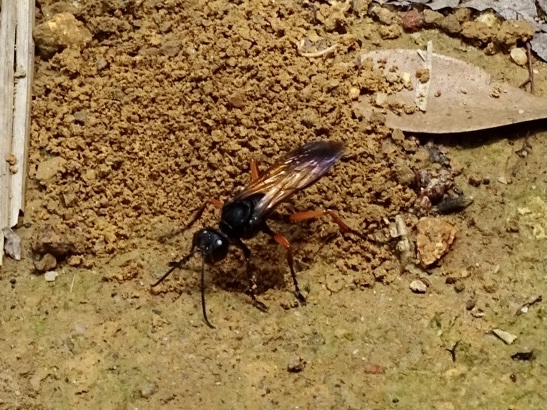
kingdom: Animalia
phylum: Arthropoda
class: Insecta
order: Hymenoptera
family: Sphecidae
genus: Sphex
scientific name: Sphex subtruncatus
